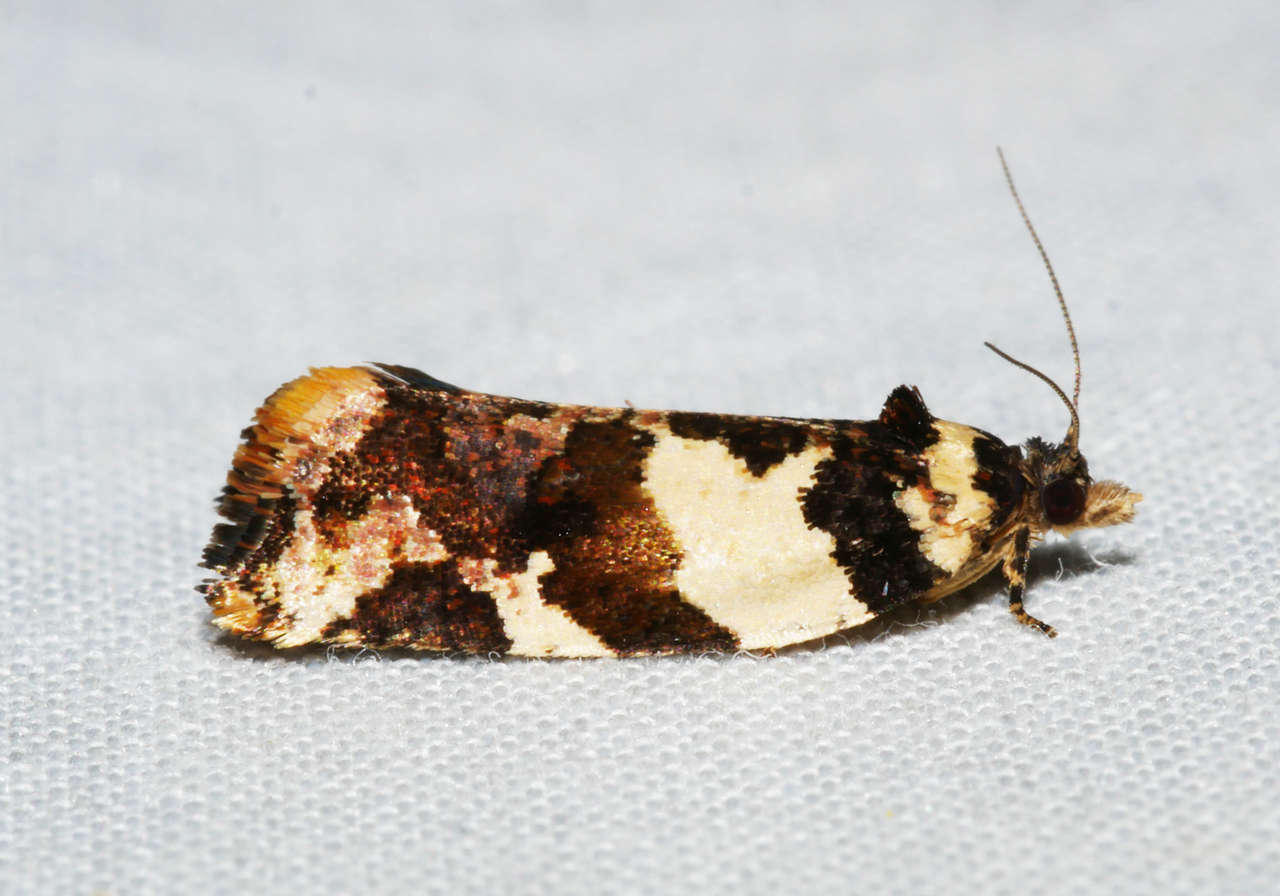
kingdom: Animalia
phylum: Arthropoda
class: Insecta
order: Lepidoptera
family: Tortricidae
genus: Epitymbia
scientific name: Epitymbia cosmota
